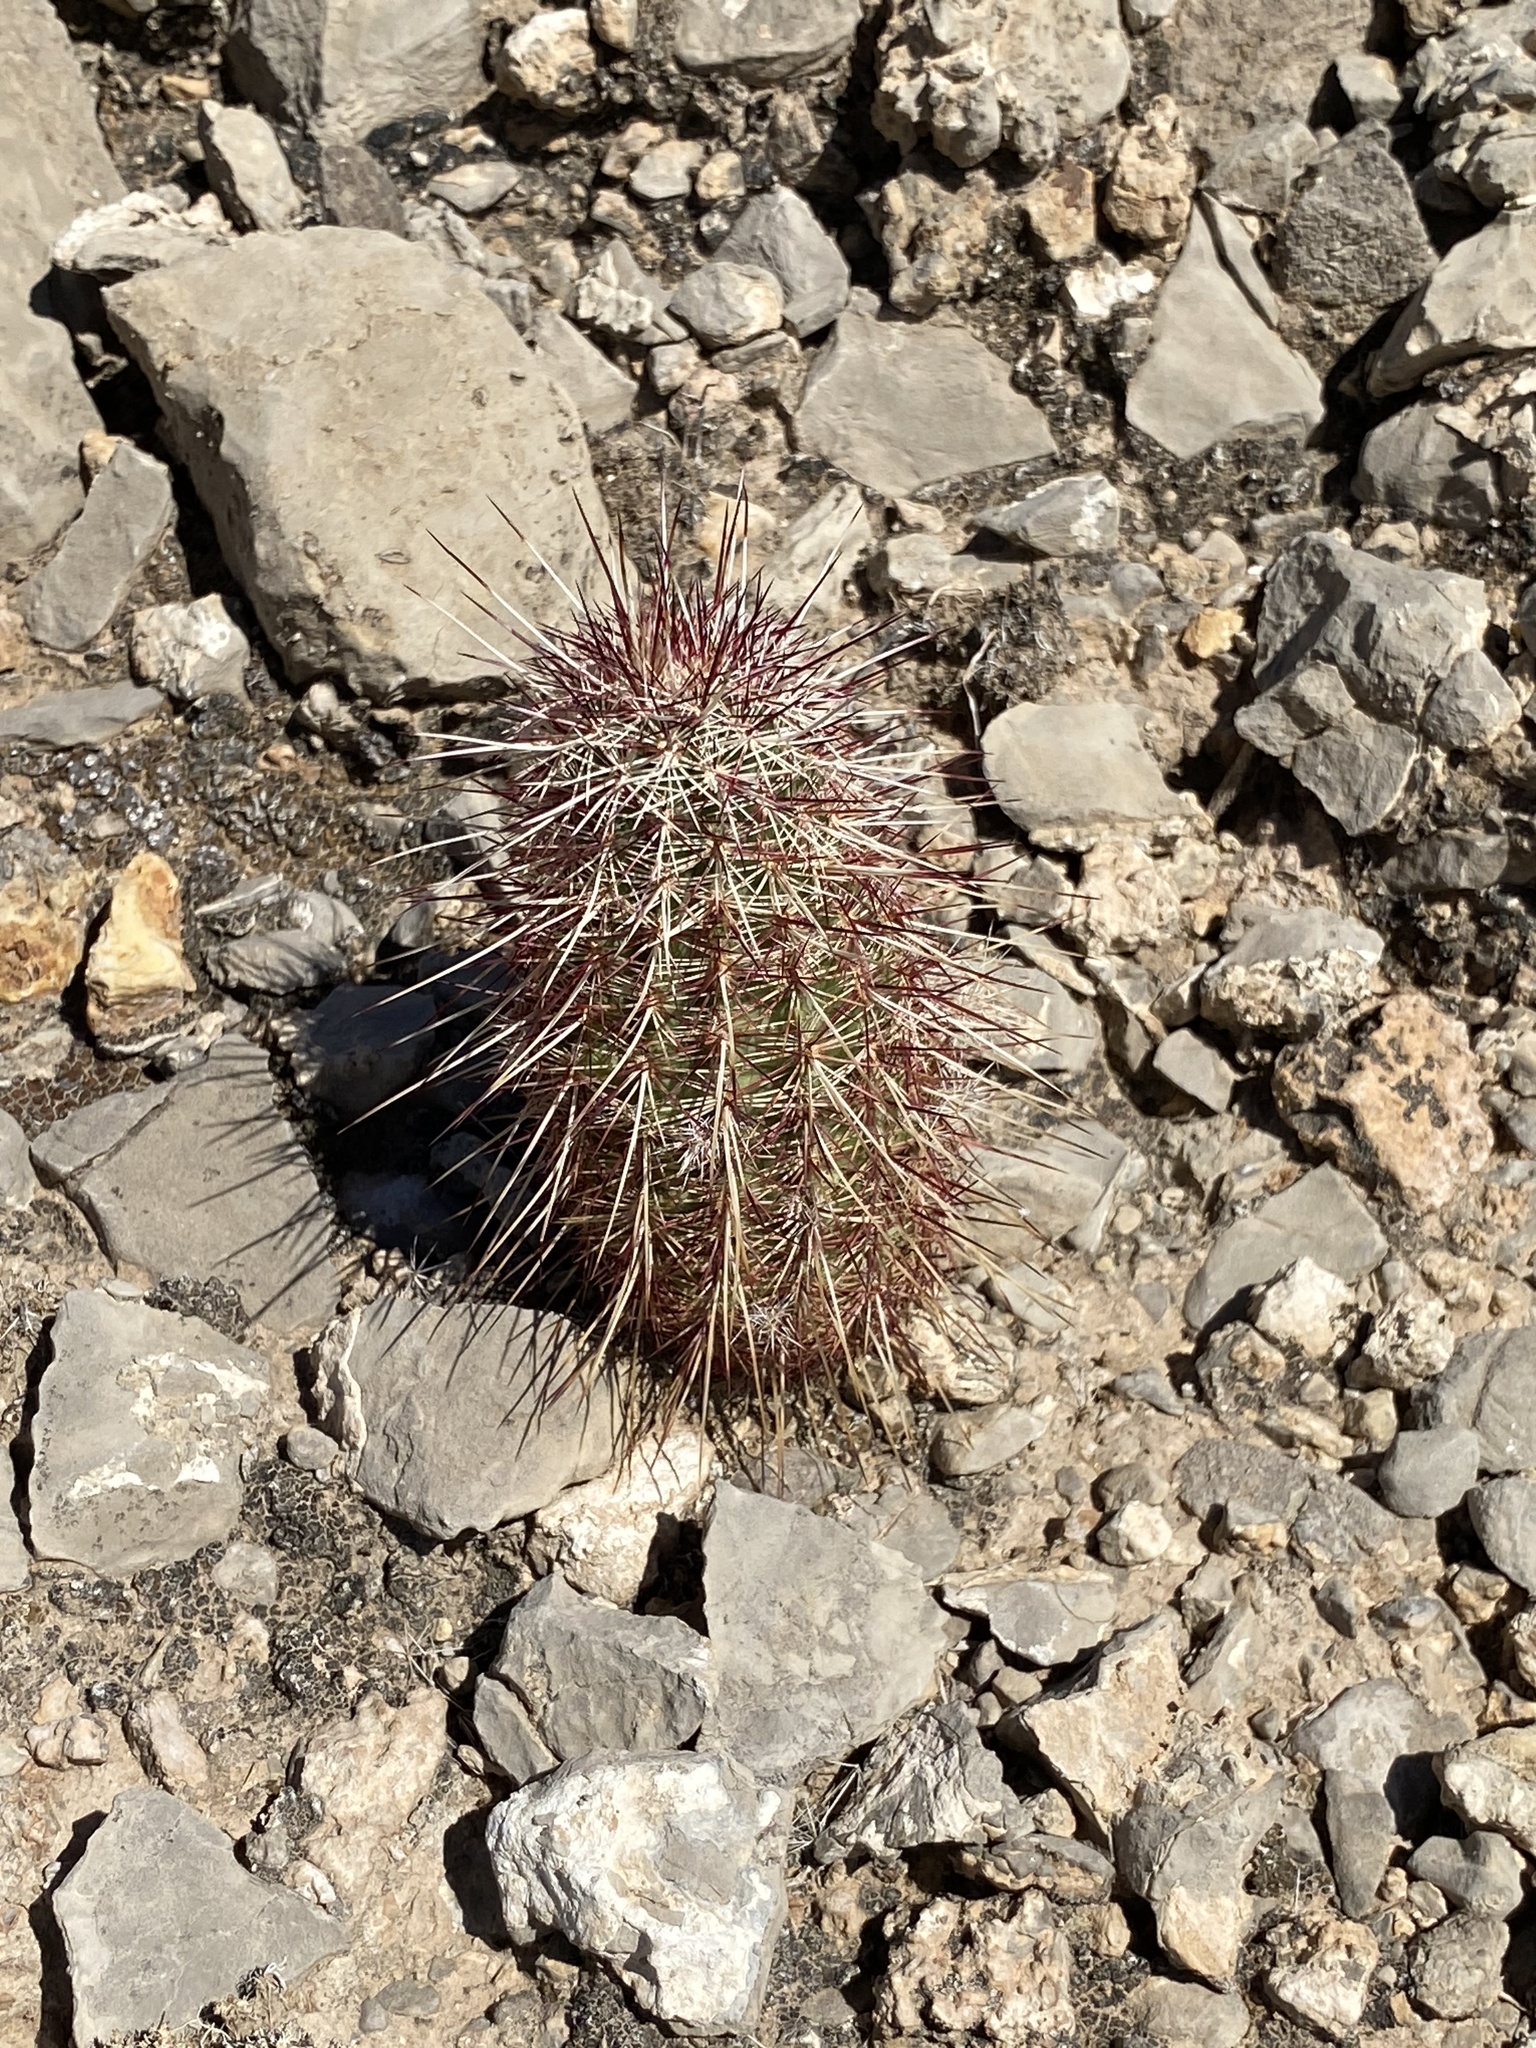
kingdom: Plantae
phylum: Tracheophyta
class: Magnoliopsida
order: Caryophyllales
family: Cactaceae
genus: Echinocereus
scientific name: Echinocereus viridiflorus
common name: Nylon hedgehog cactus
